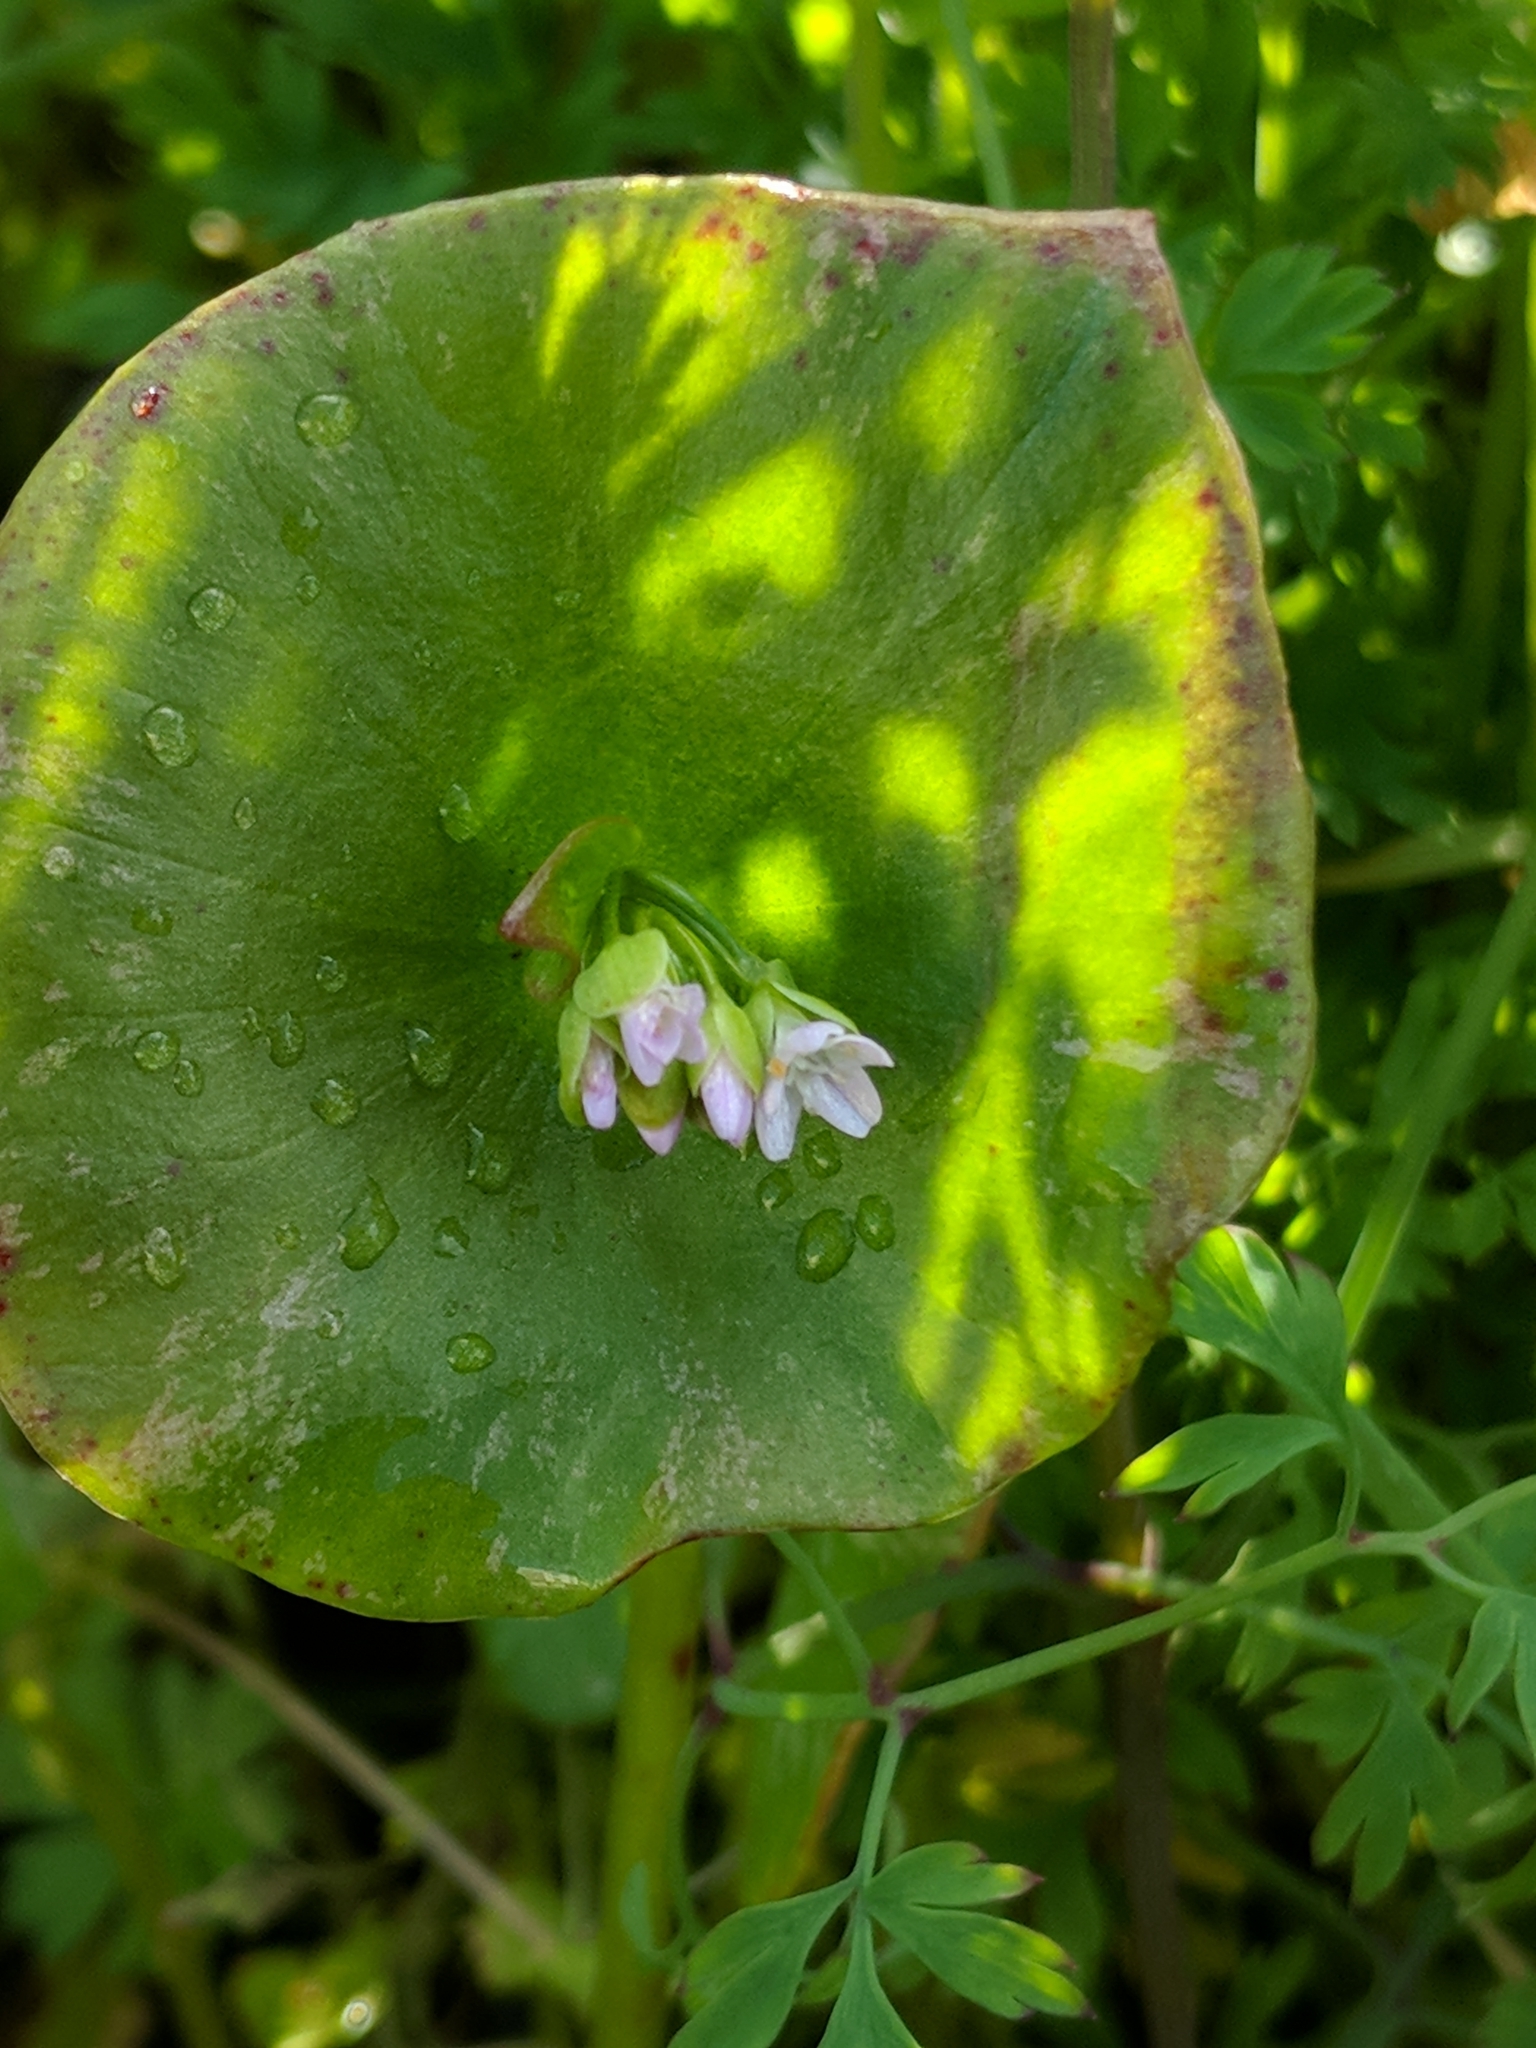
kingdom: Plantae
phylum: Tracheophyta
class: Magnoliopsida
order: Caryophyllales
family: Montiaceae
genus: Claytonia
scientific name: Claytonia perfoliata
